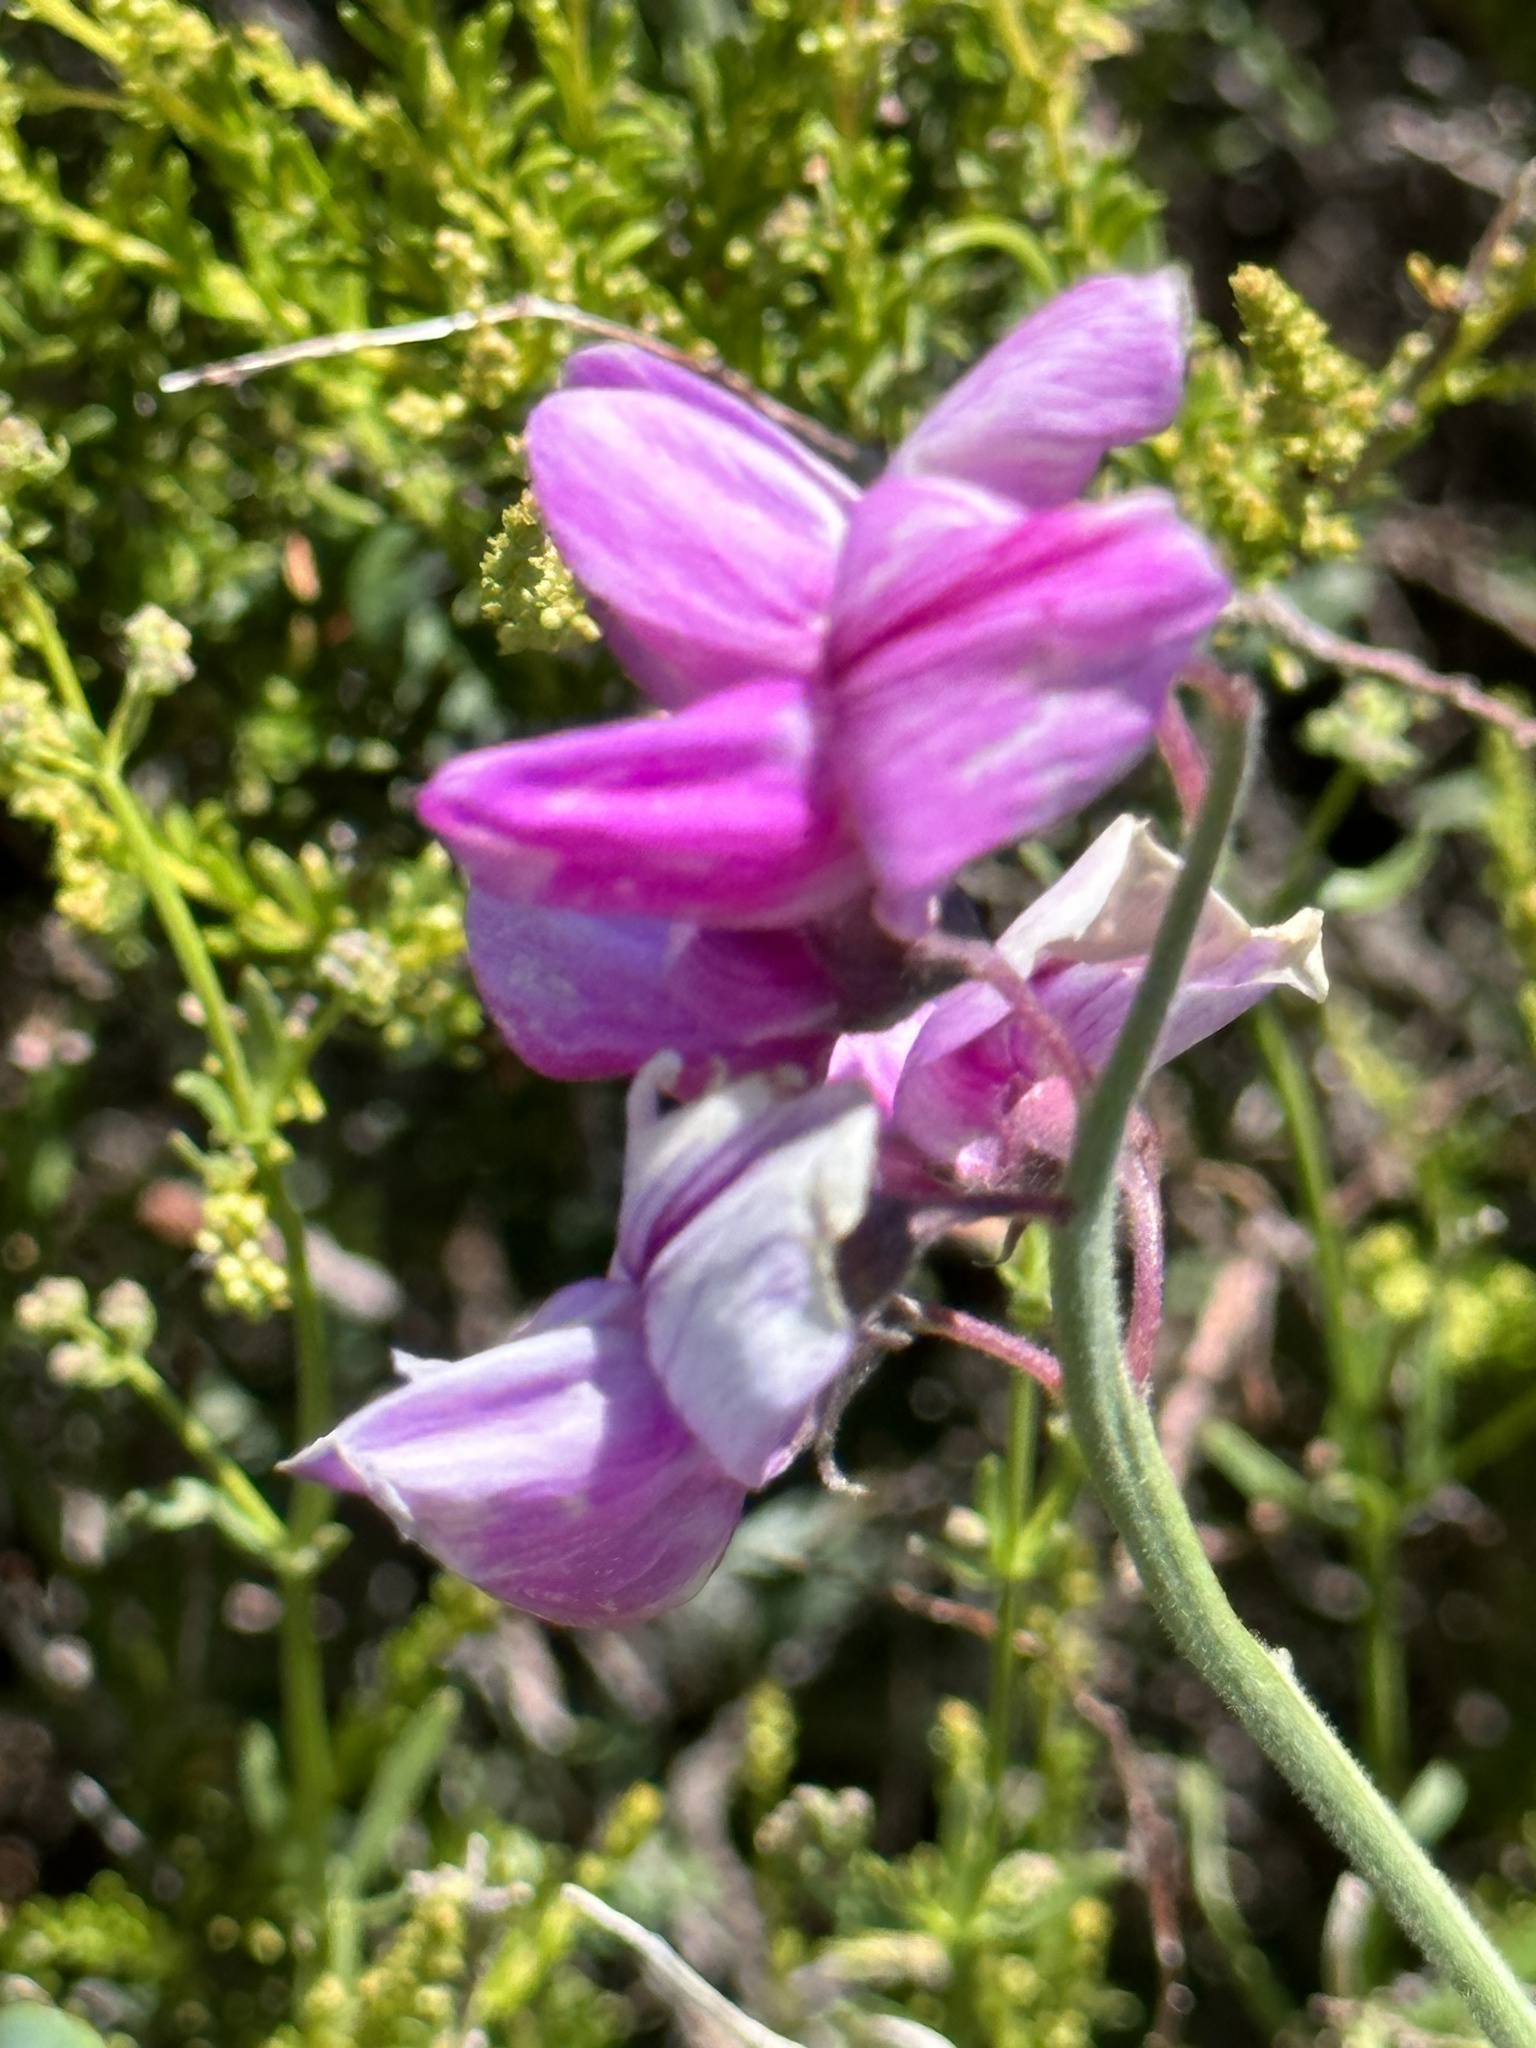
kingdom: Plantae
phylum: Tracheophyta
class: Magnoliopsida
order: Fabales
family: Fabaceae
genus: Lathyrus
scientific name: Lathyrus vestitus
